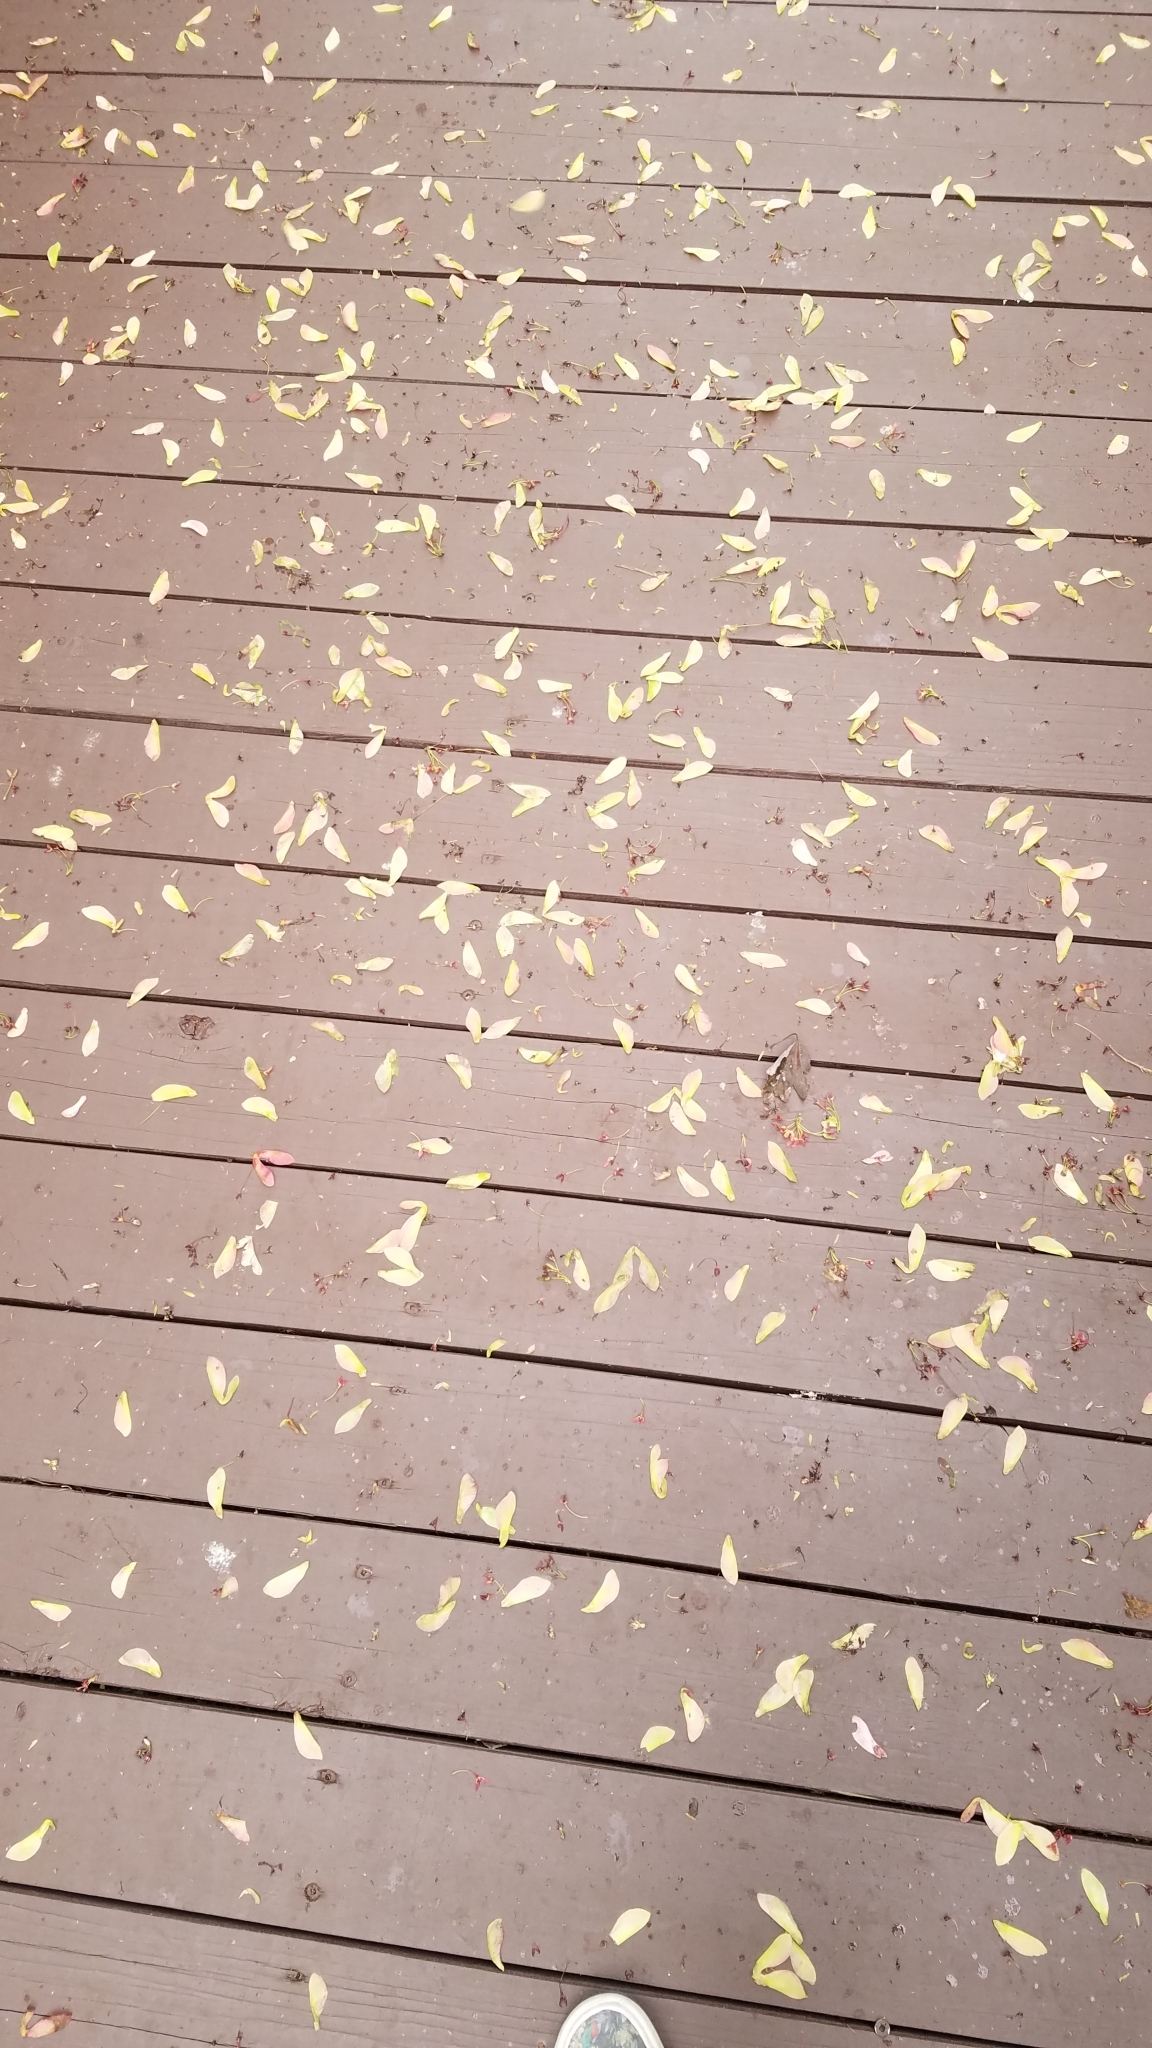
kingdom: Plantae
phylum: Tracheophyta
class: Magnoliopsida
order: Sapindales
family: Sapindaceae
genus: Acer
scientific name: Acer rubrum
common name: Red maple
